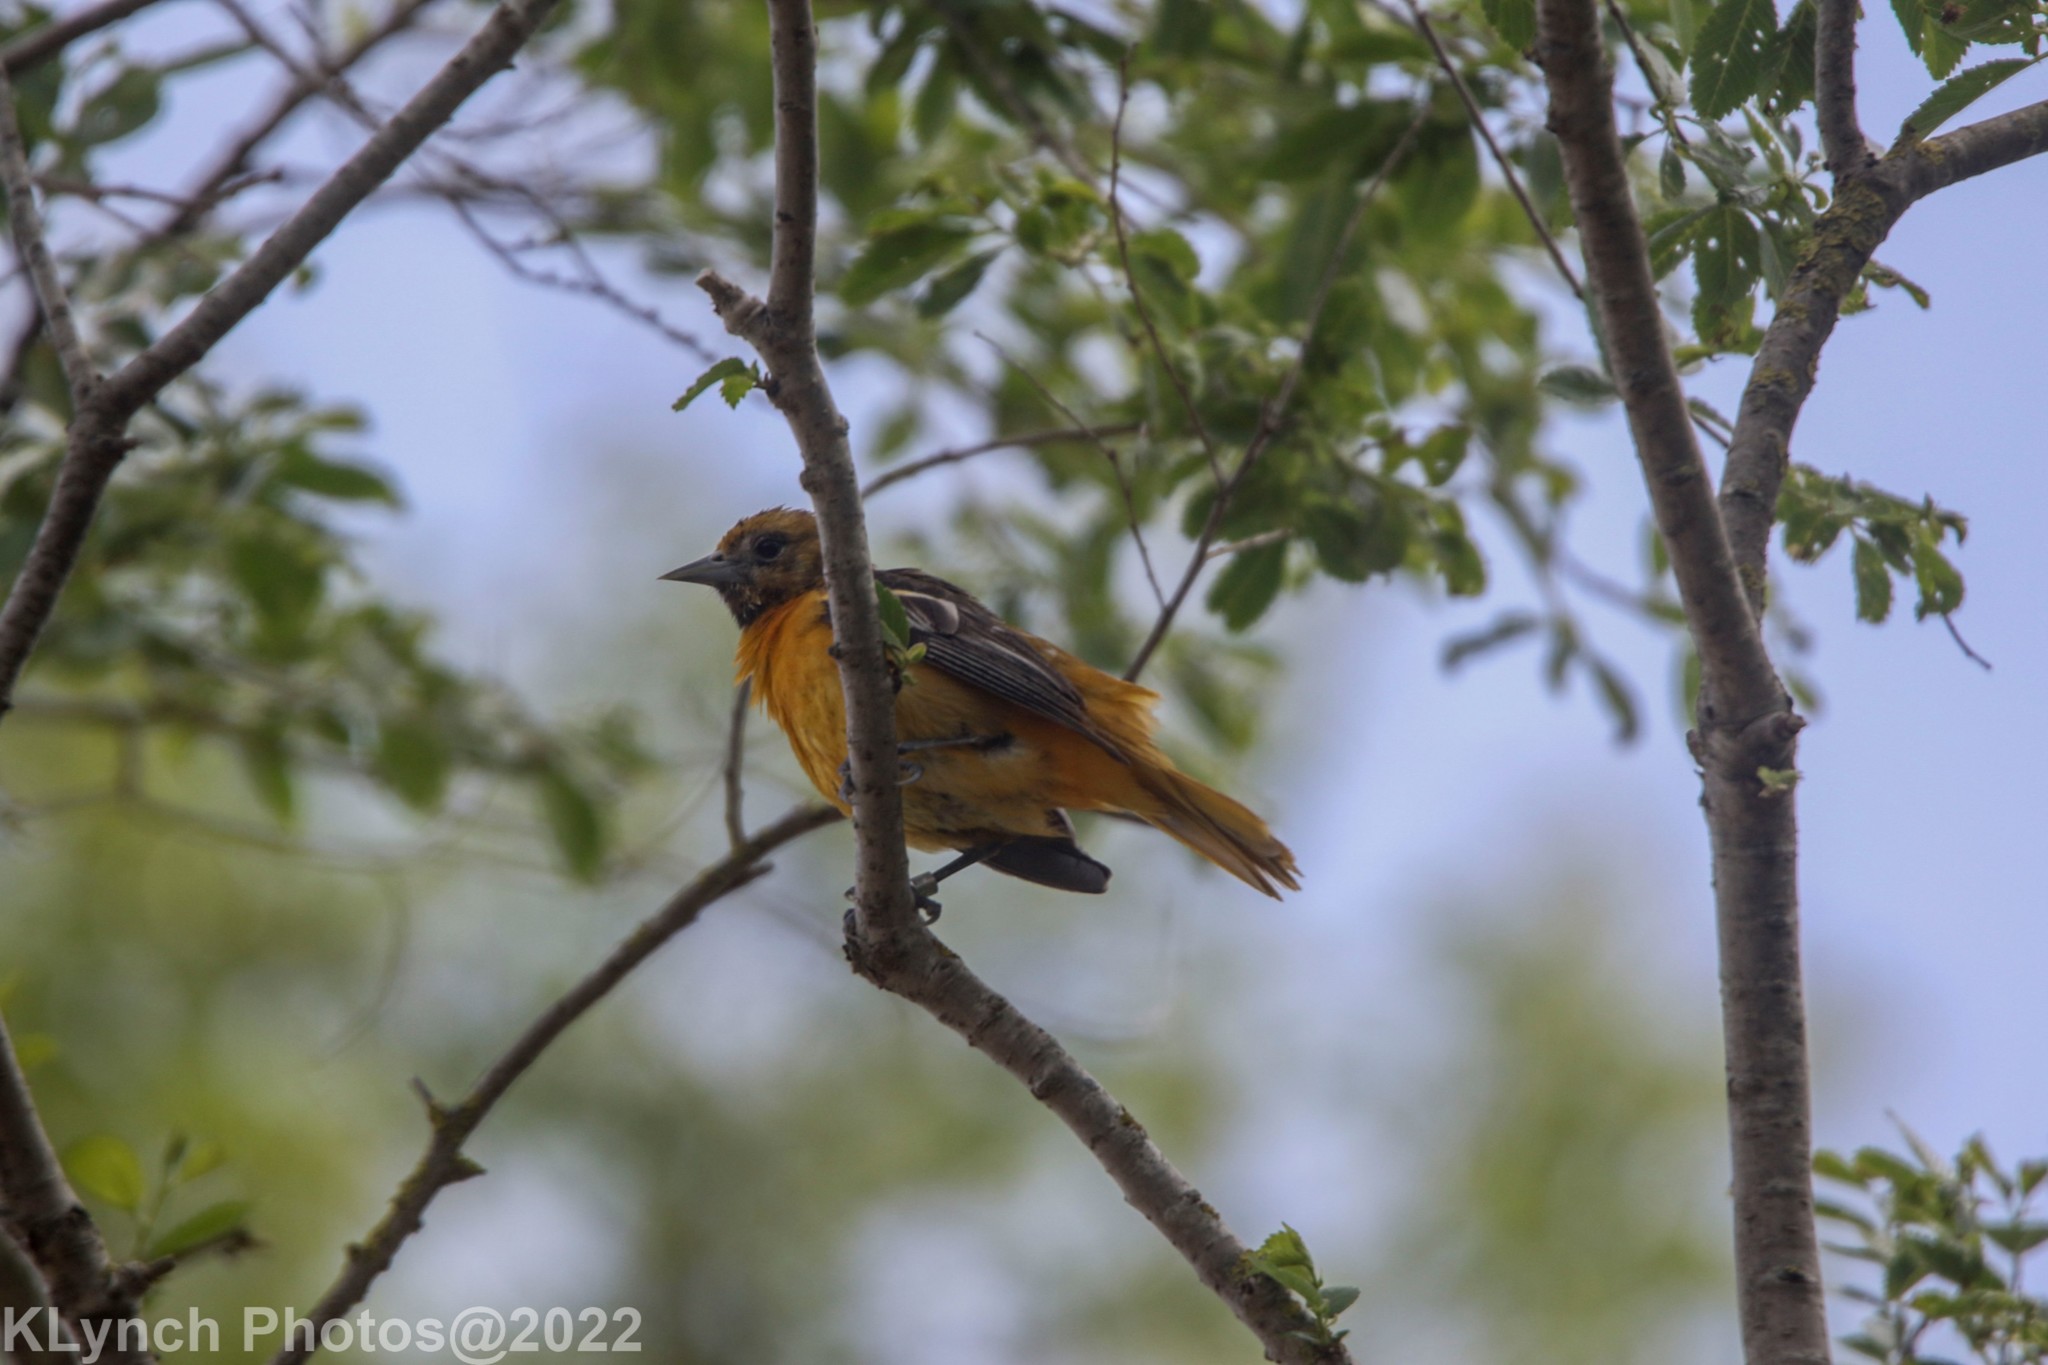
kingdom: Animalia
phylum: Chordata
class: Aves
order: Passeriformes
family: Icteridae
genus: Icterus
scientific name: Icterus galbula
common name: Baltimore oriole
